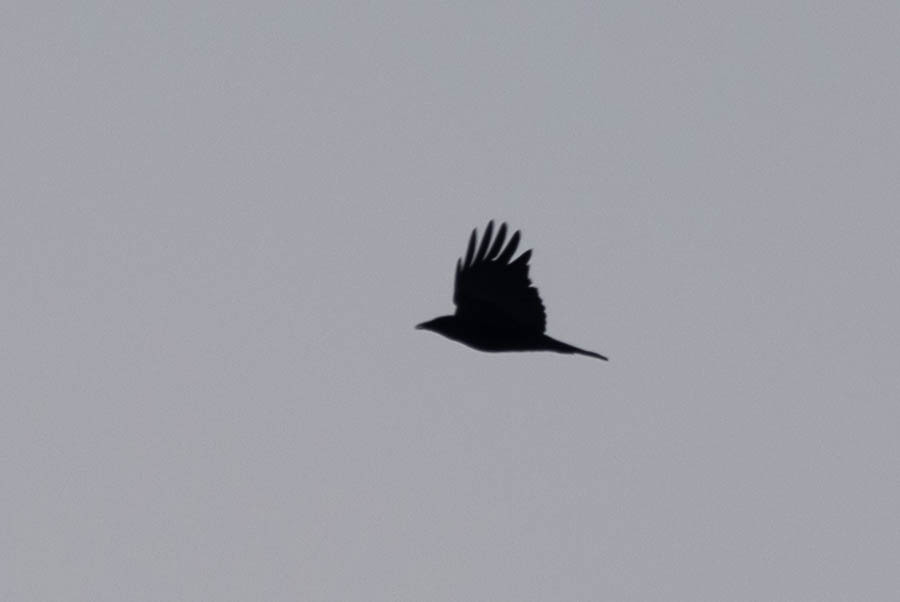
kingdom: Animalia
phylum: Chordata
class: Aves
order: Passeriformes
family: Corvidae
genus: Corvus
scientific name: Corvus corax
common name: Common raven
